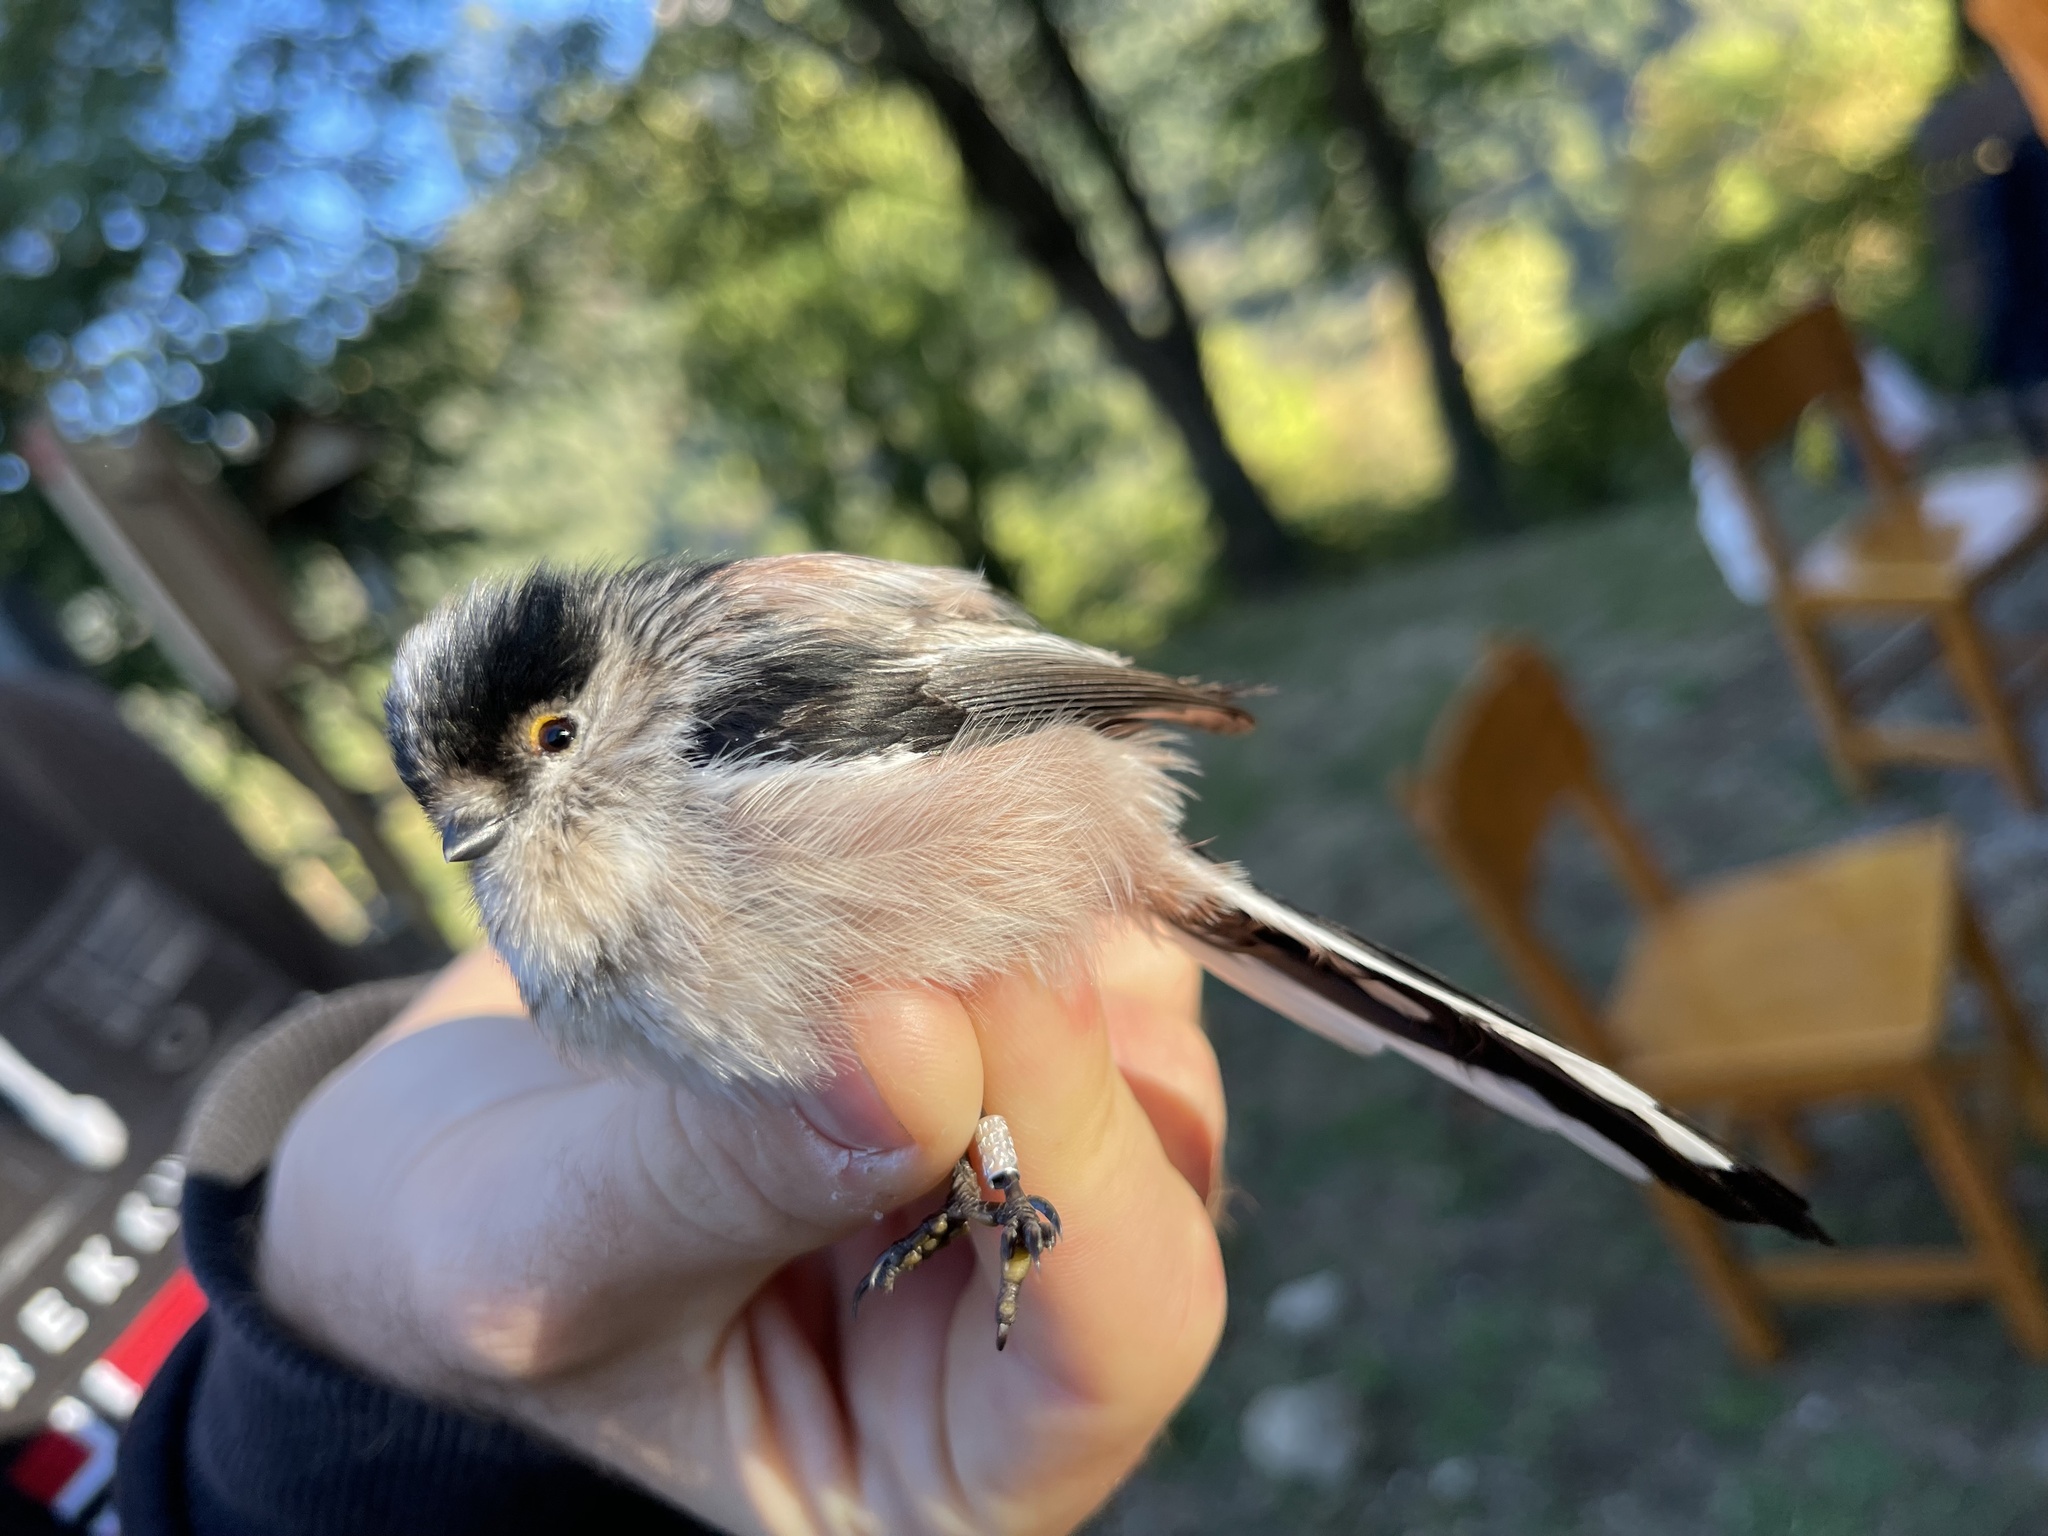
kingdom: Animalia
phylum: Chordata
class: Aves
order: Passeriformes
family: Aegithalidae
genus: Aegithalos
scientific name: Aegithalos caudatus
